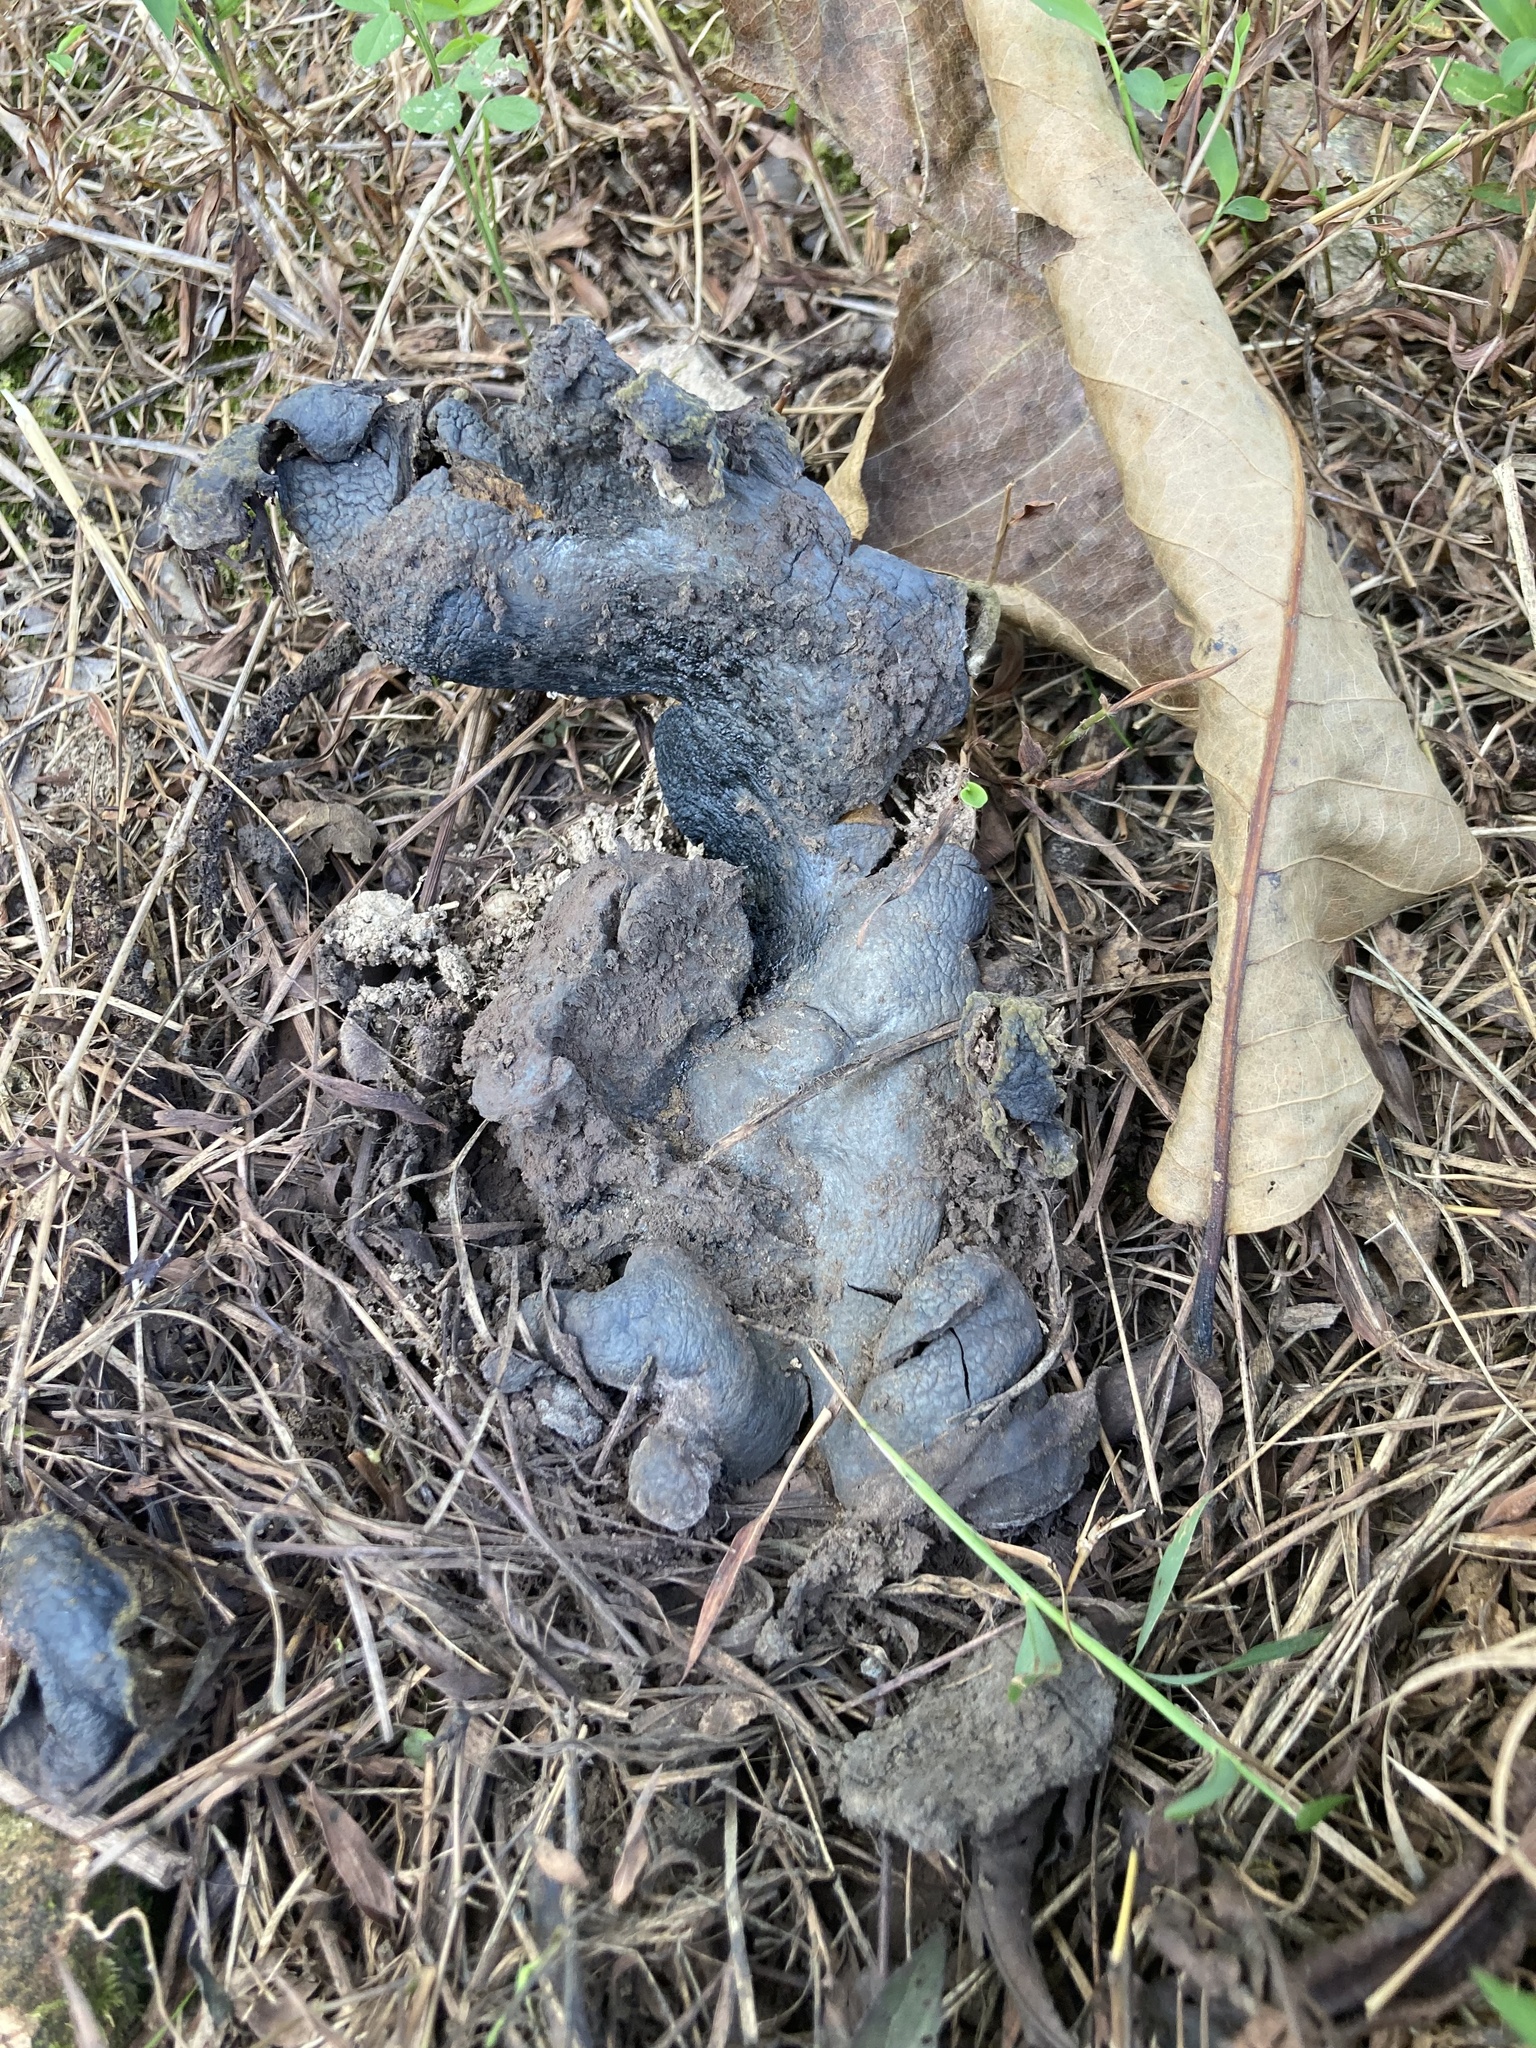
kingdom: Fungi
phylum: Basidiomycota
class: Agaricomycetes
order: Boletales
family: Sclerodermataceae
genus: Scleroderma
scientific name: Scleroderma polyrhizum
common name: Many-rooted earthball
